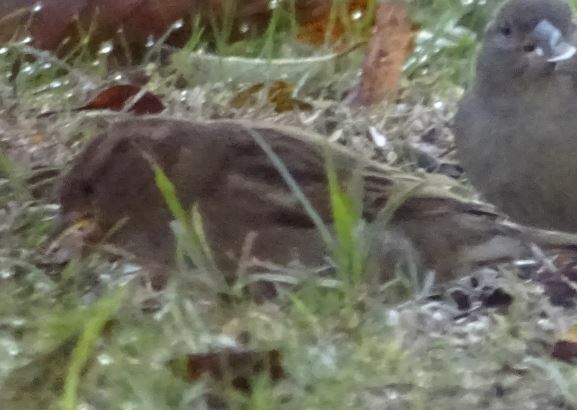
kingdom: Animalia
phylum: Chordata
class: Aves
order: Passeriformes
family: Passeridae
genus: Passer
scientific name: Passer domesticus
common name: House sparrow
